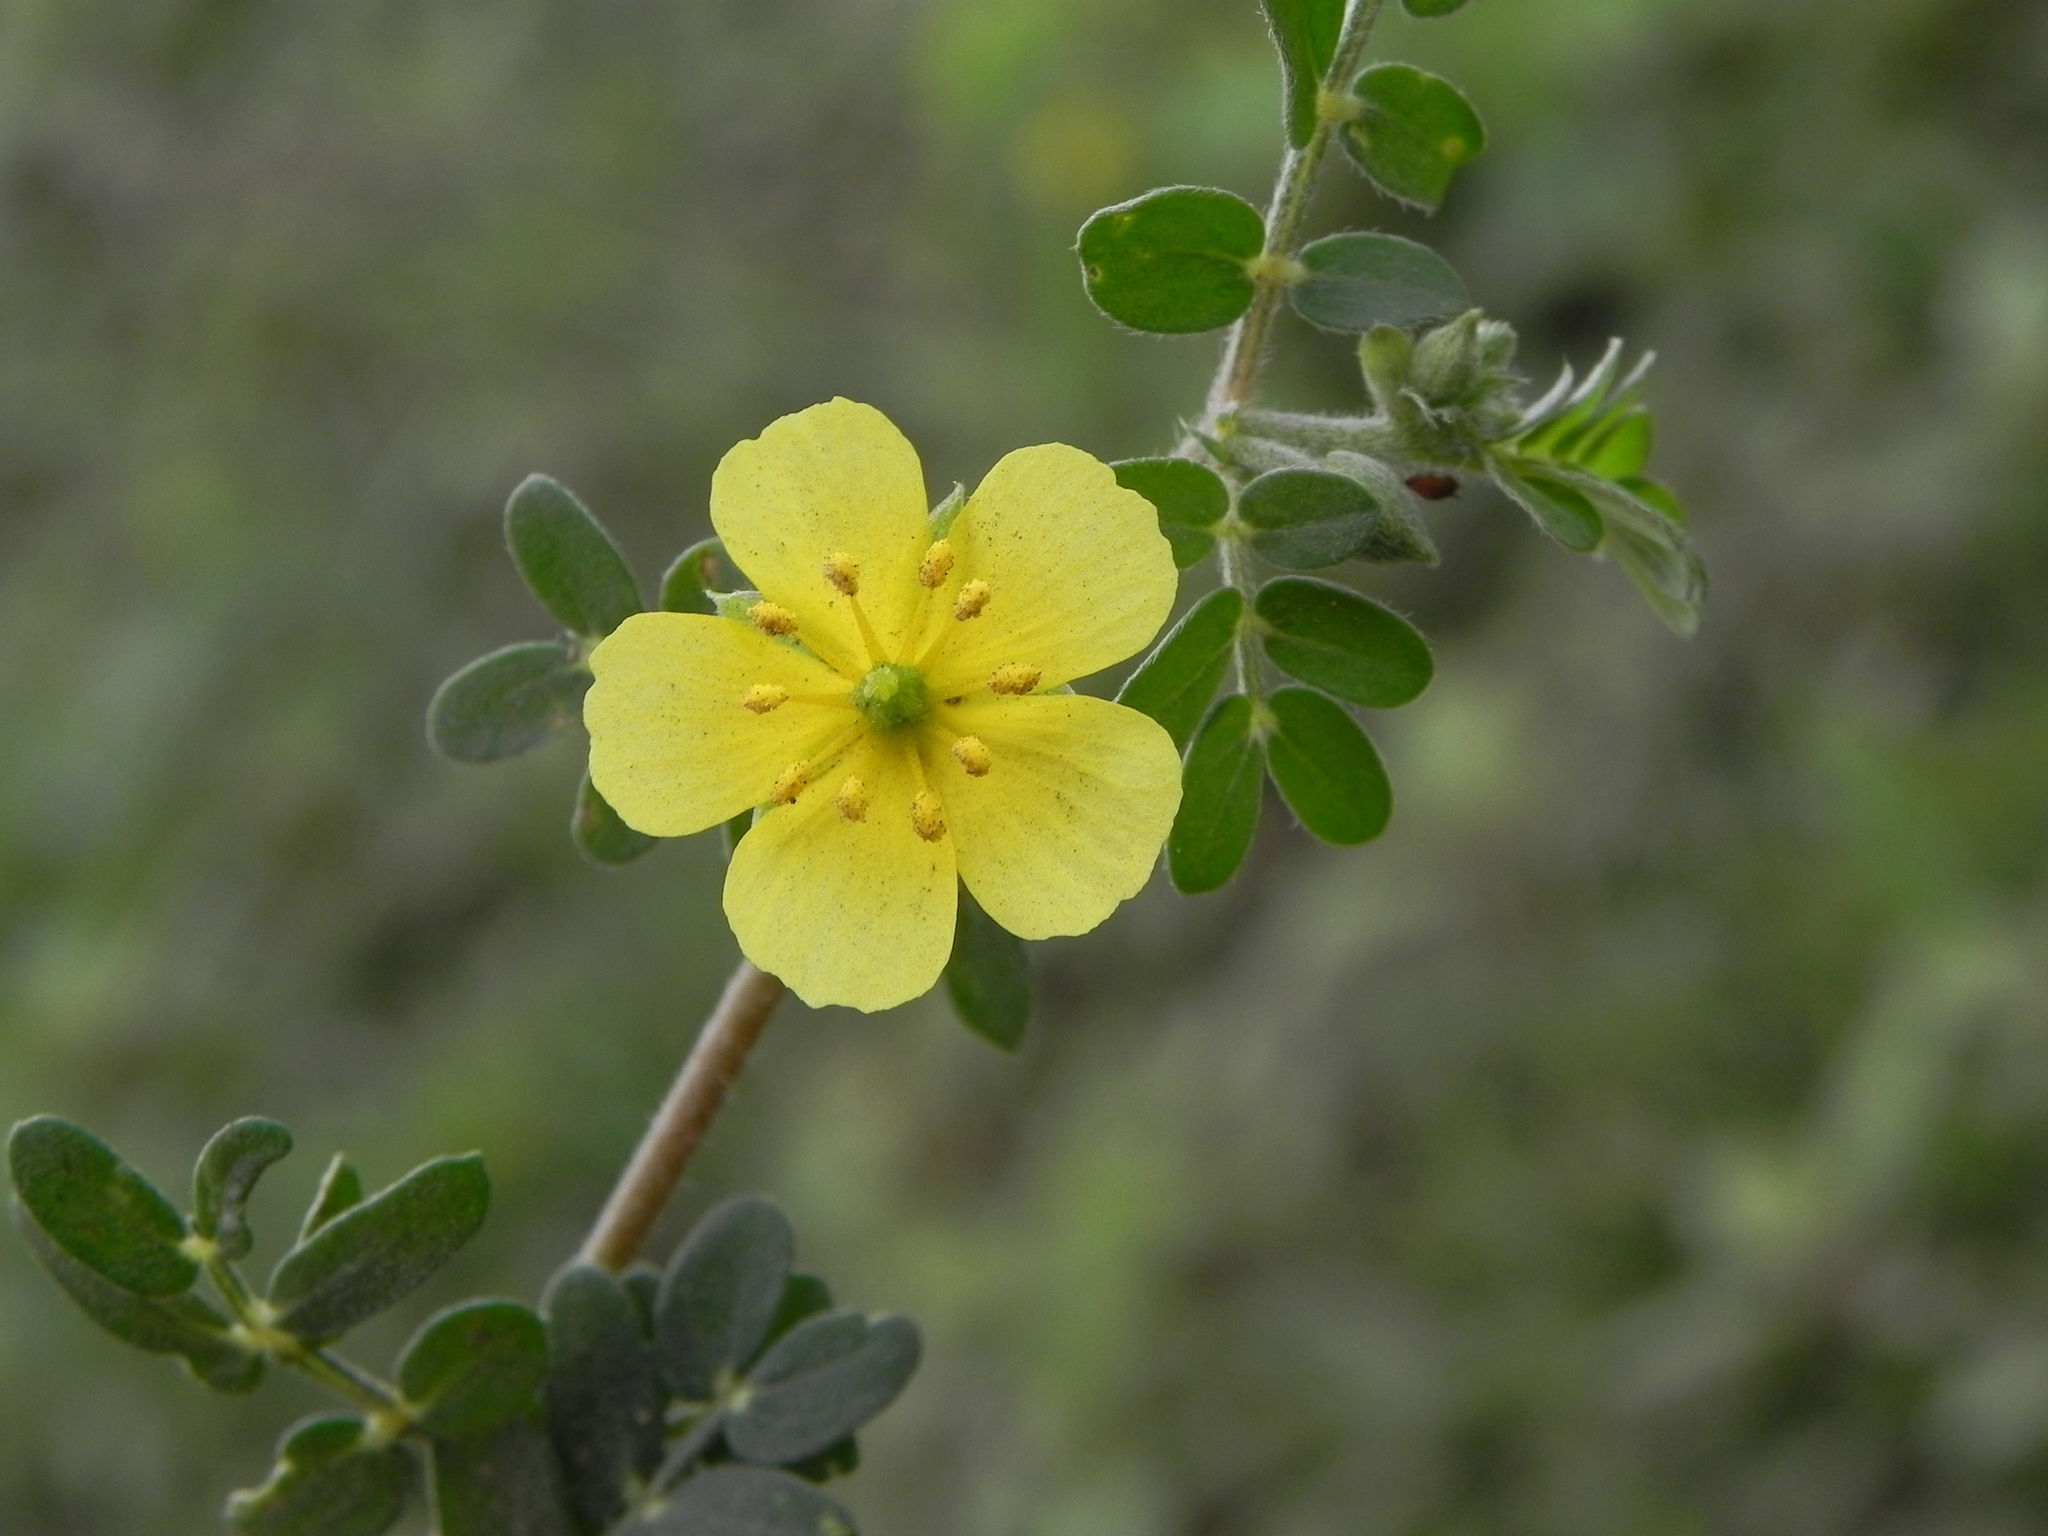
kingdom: Plantae
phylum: Tracheophyta
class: Magnoliopsida
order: Zygophyllales
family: Zygophyllaceae
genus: Tribulus
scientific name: Tribulus terrestris
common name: Puncturevine
